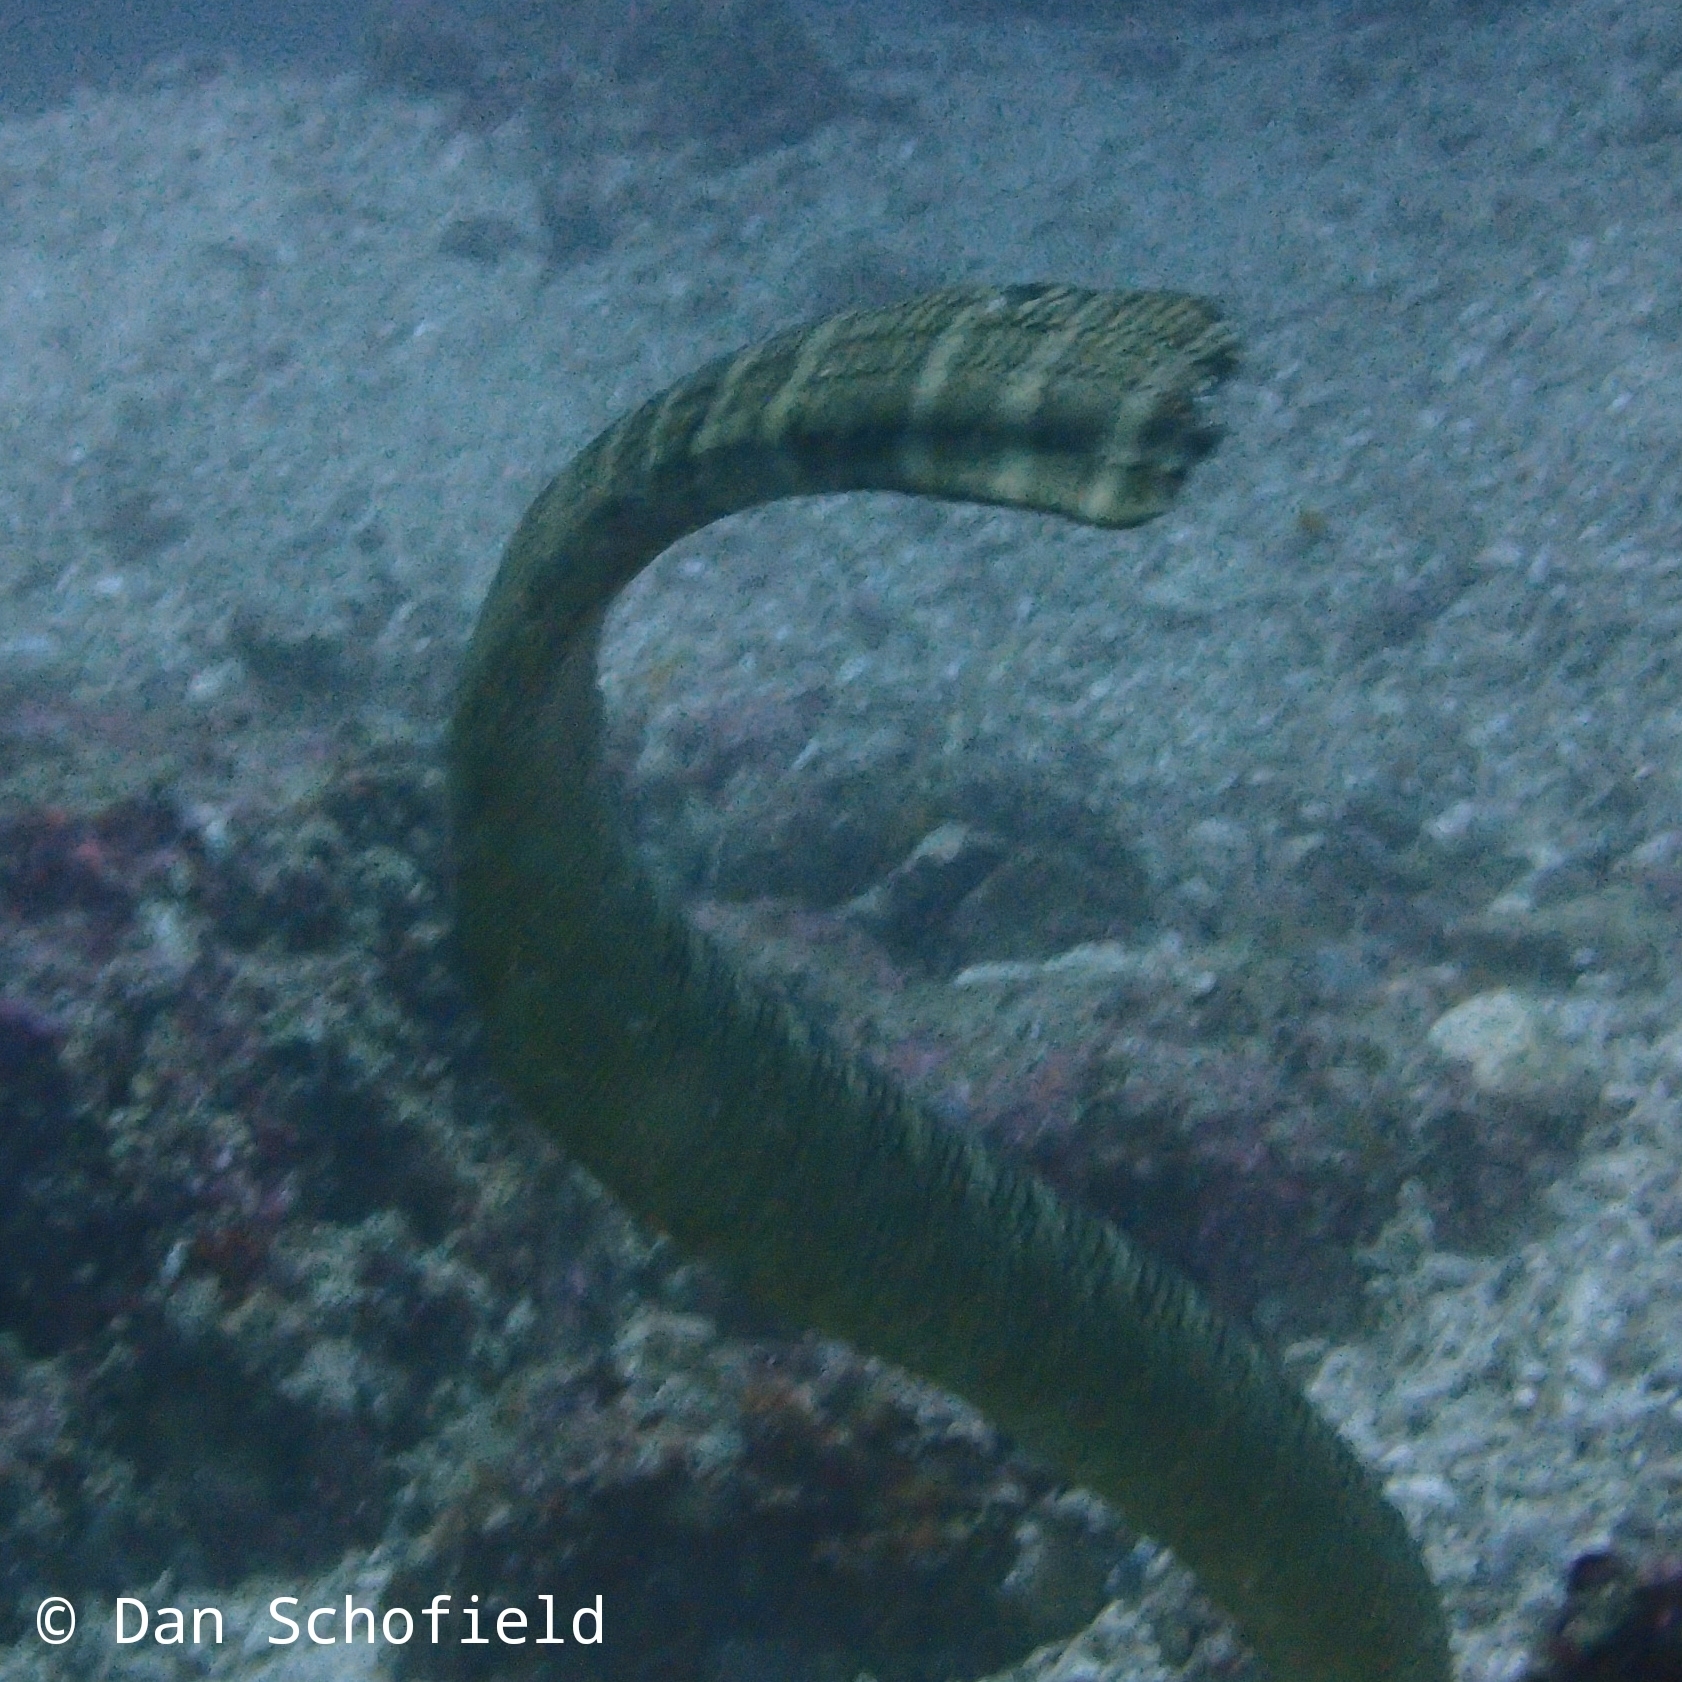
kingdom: Animalia
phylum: Chordata
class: Squamata
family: Elapidae
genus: Laticauda
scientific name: Laticauda semifasciata
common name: Chinese sea snake
